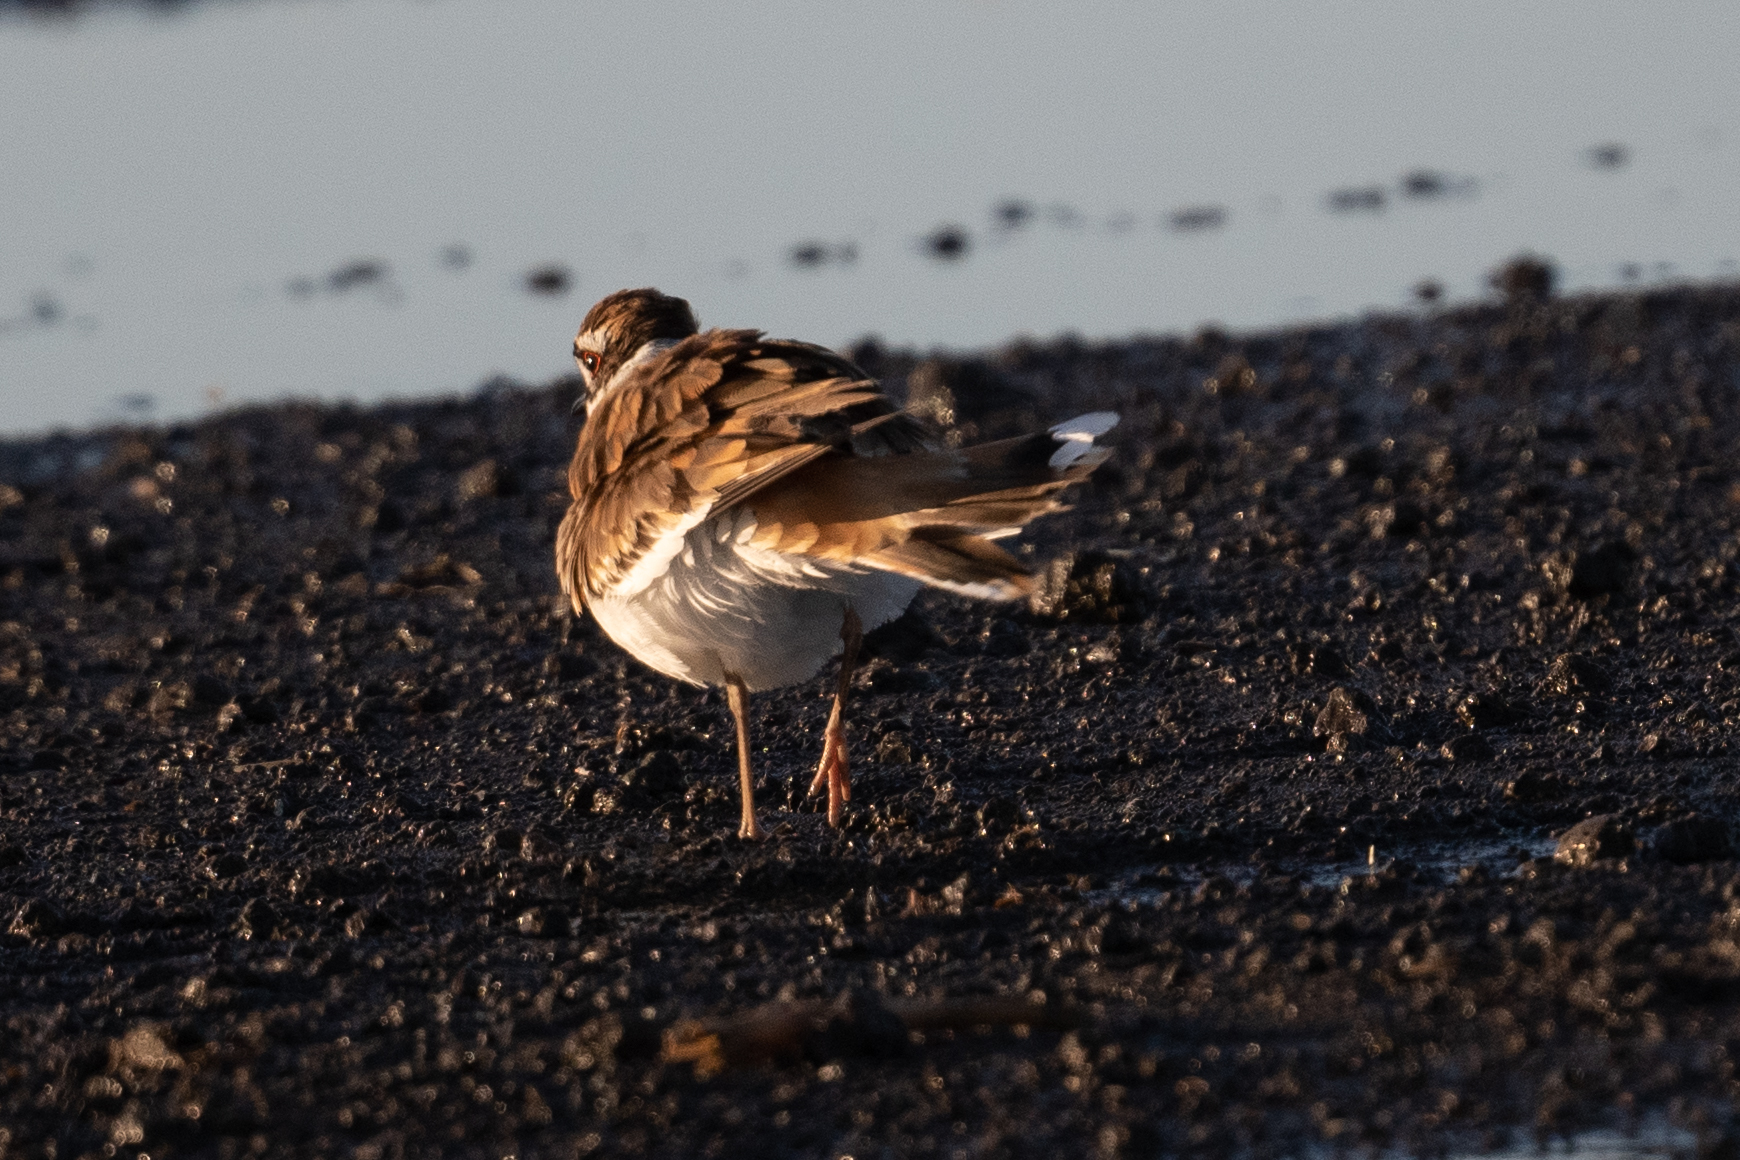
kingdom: Animalia
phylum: Chordata
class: Aves
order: Charadriiformes
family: Charadriidae
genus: Charadrius
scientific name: Charadrius vociferus
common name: Killdeer
